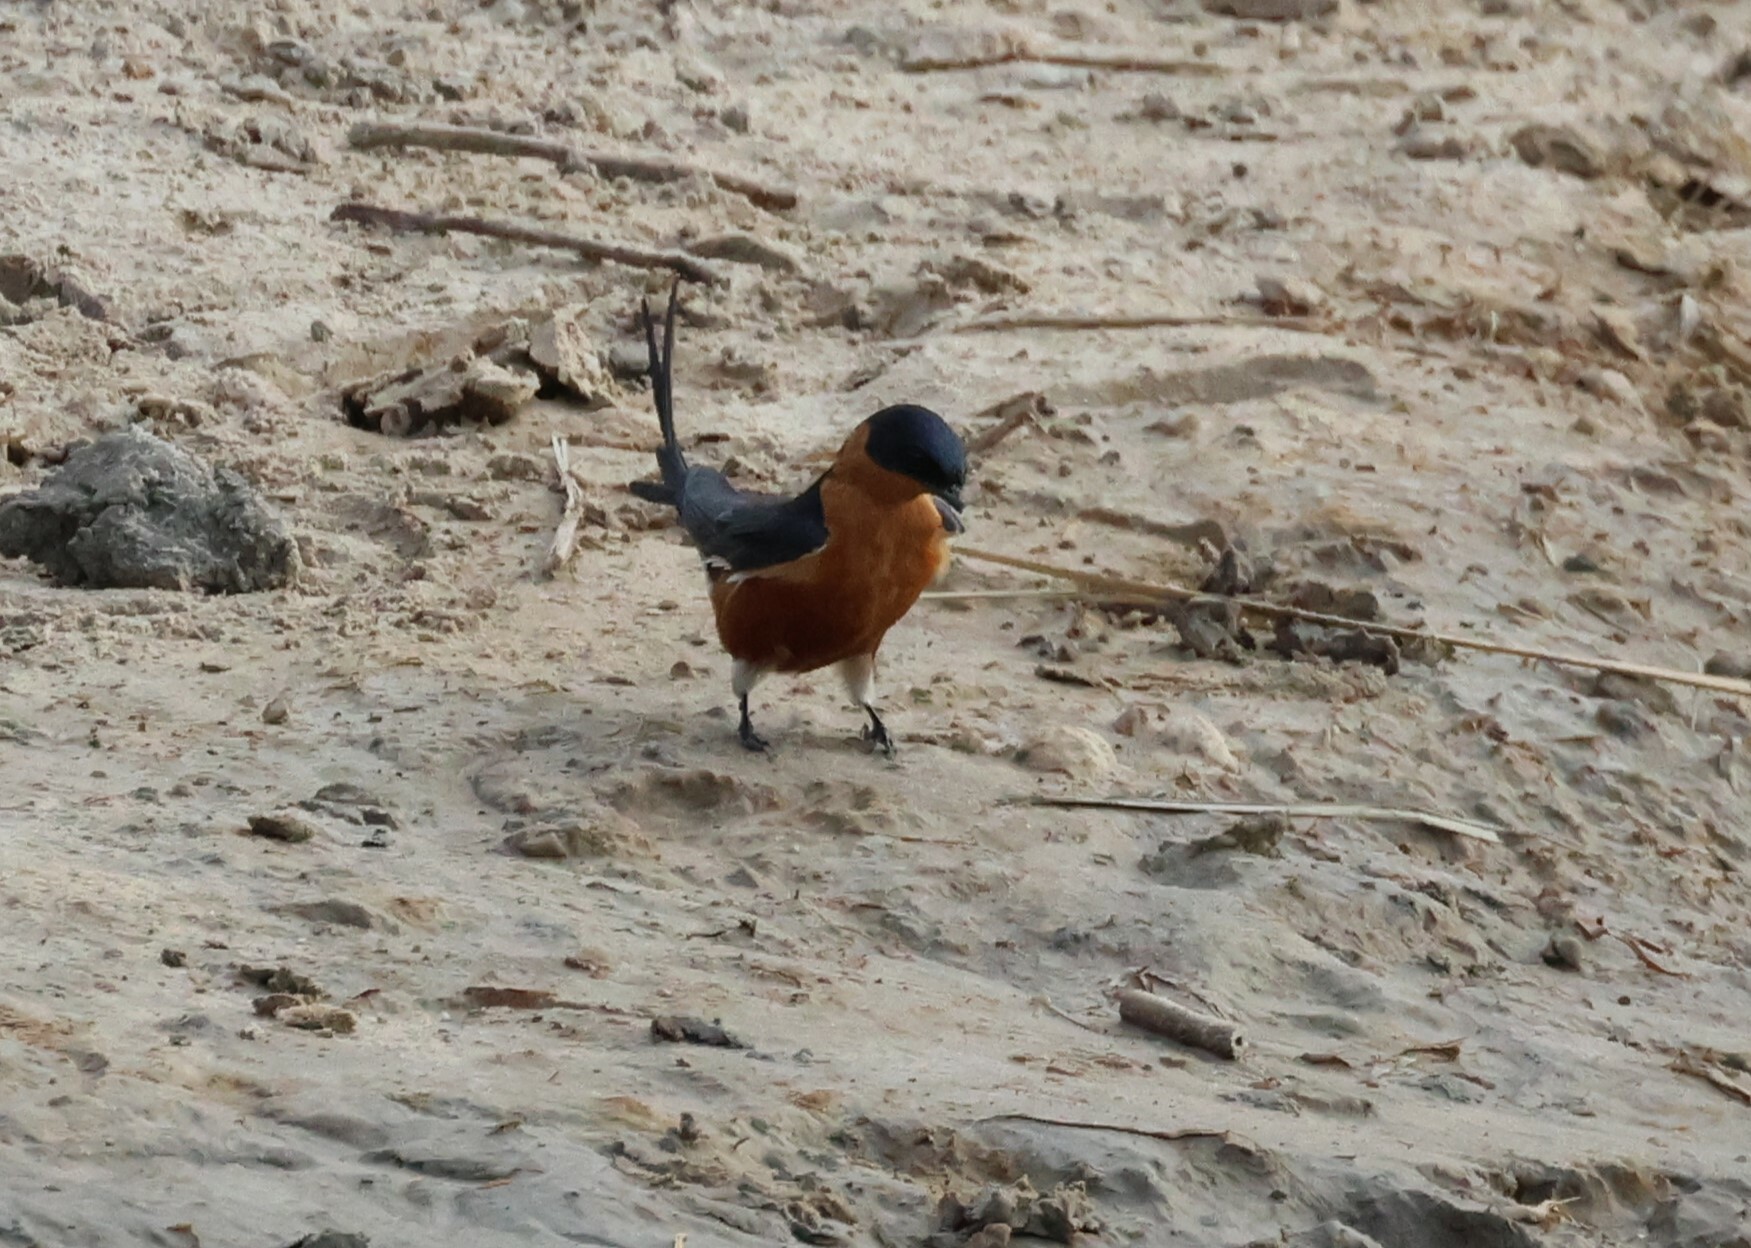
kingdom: Animalia
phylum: Chordata
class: Aves
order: Passeriformes
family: Hirundinidae
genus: Cecropis
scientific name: Cecropis semirufa
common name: Red-breasted swallow
